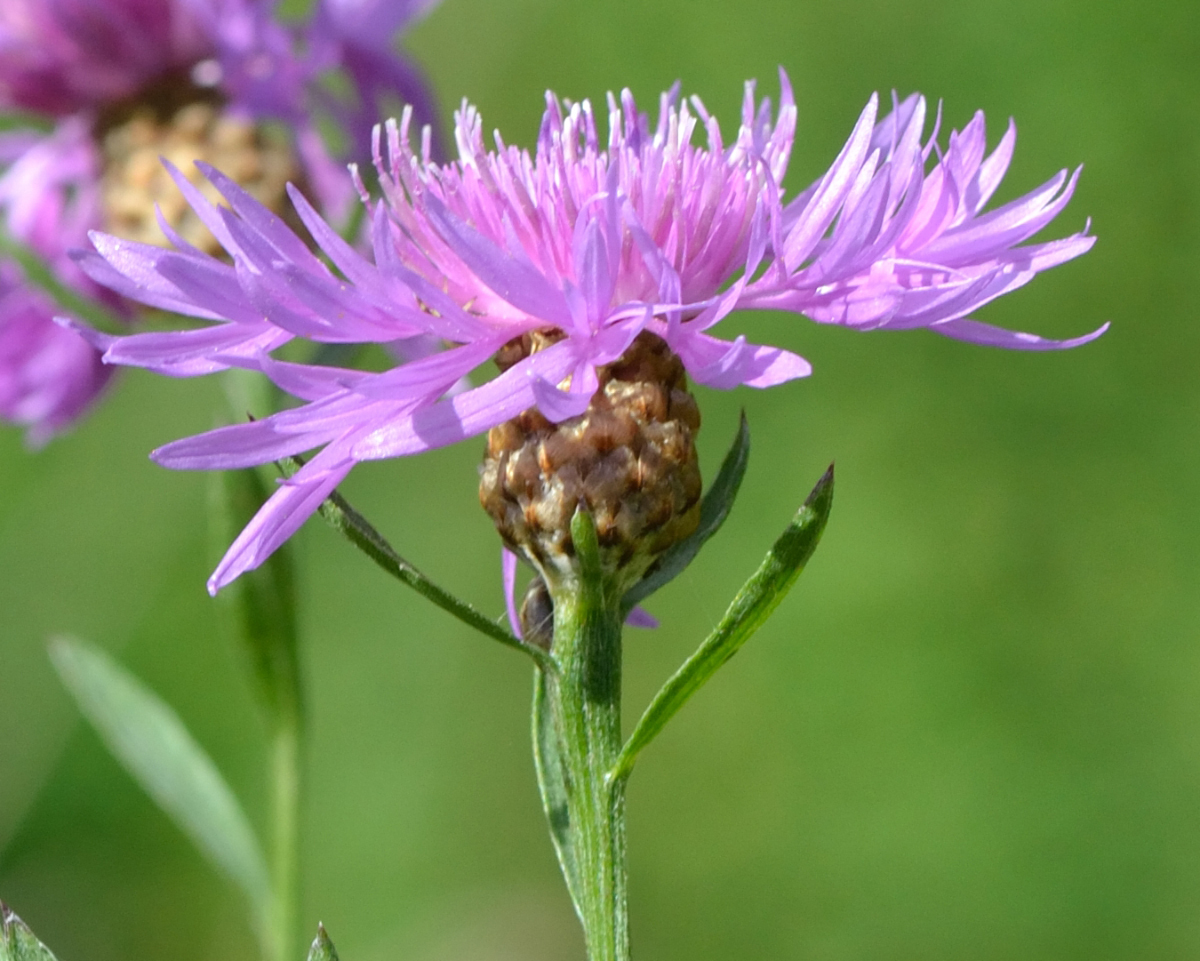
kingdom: Plantae
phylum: Tracheophyta
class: Magnoliopsida
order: Asterales
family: Asteraceae
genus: Centaurea
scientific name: Centaurea jacea
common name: Brown knapweed
